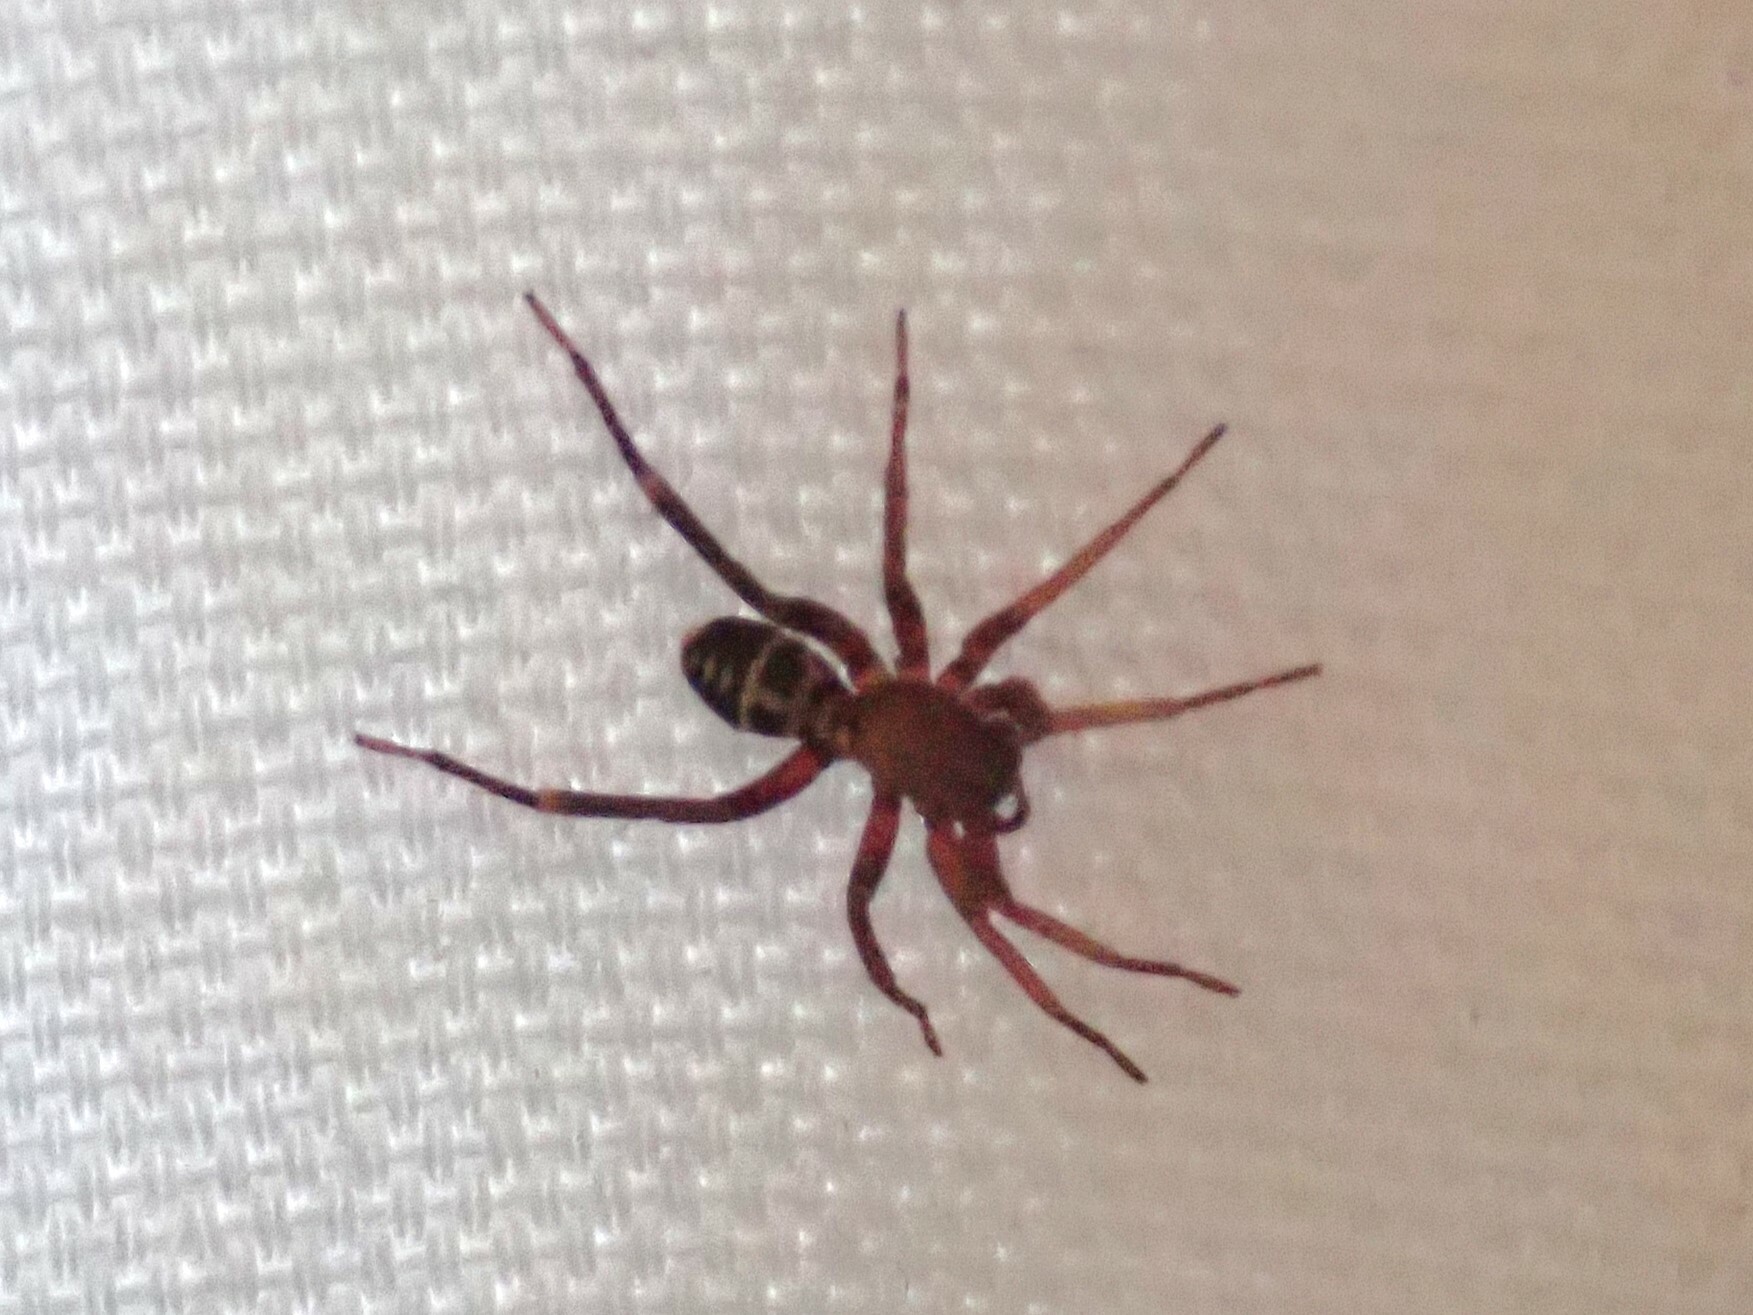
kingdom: Animalia
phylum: Arthropoda
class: Arachnida
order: Araneae
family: Corinnidae
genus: Castianeira
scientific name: Castianeira thalia
